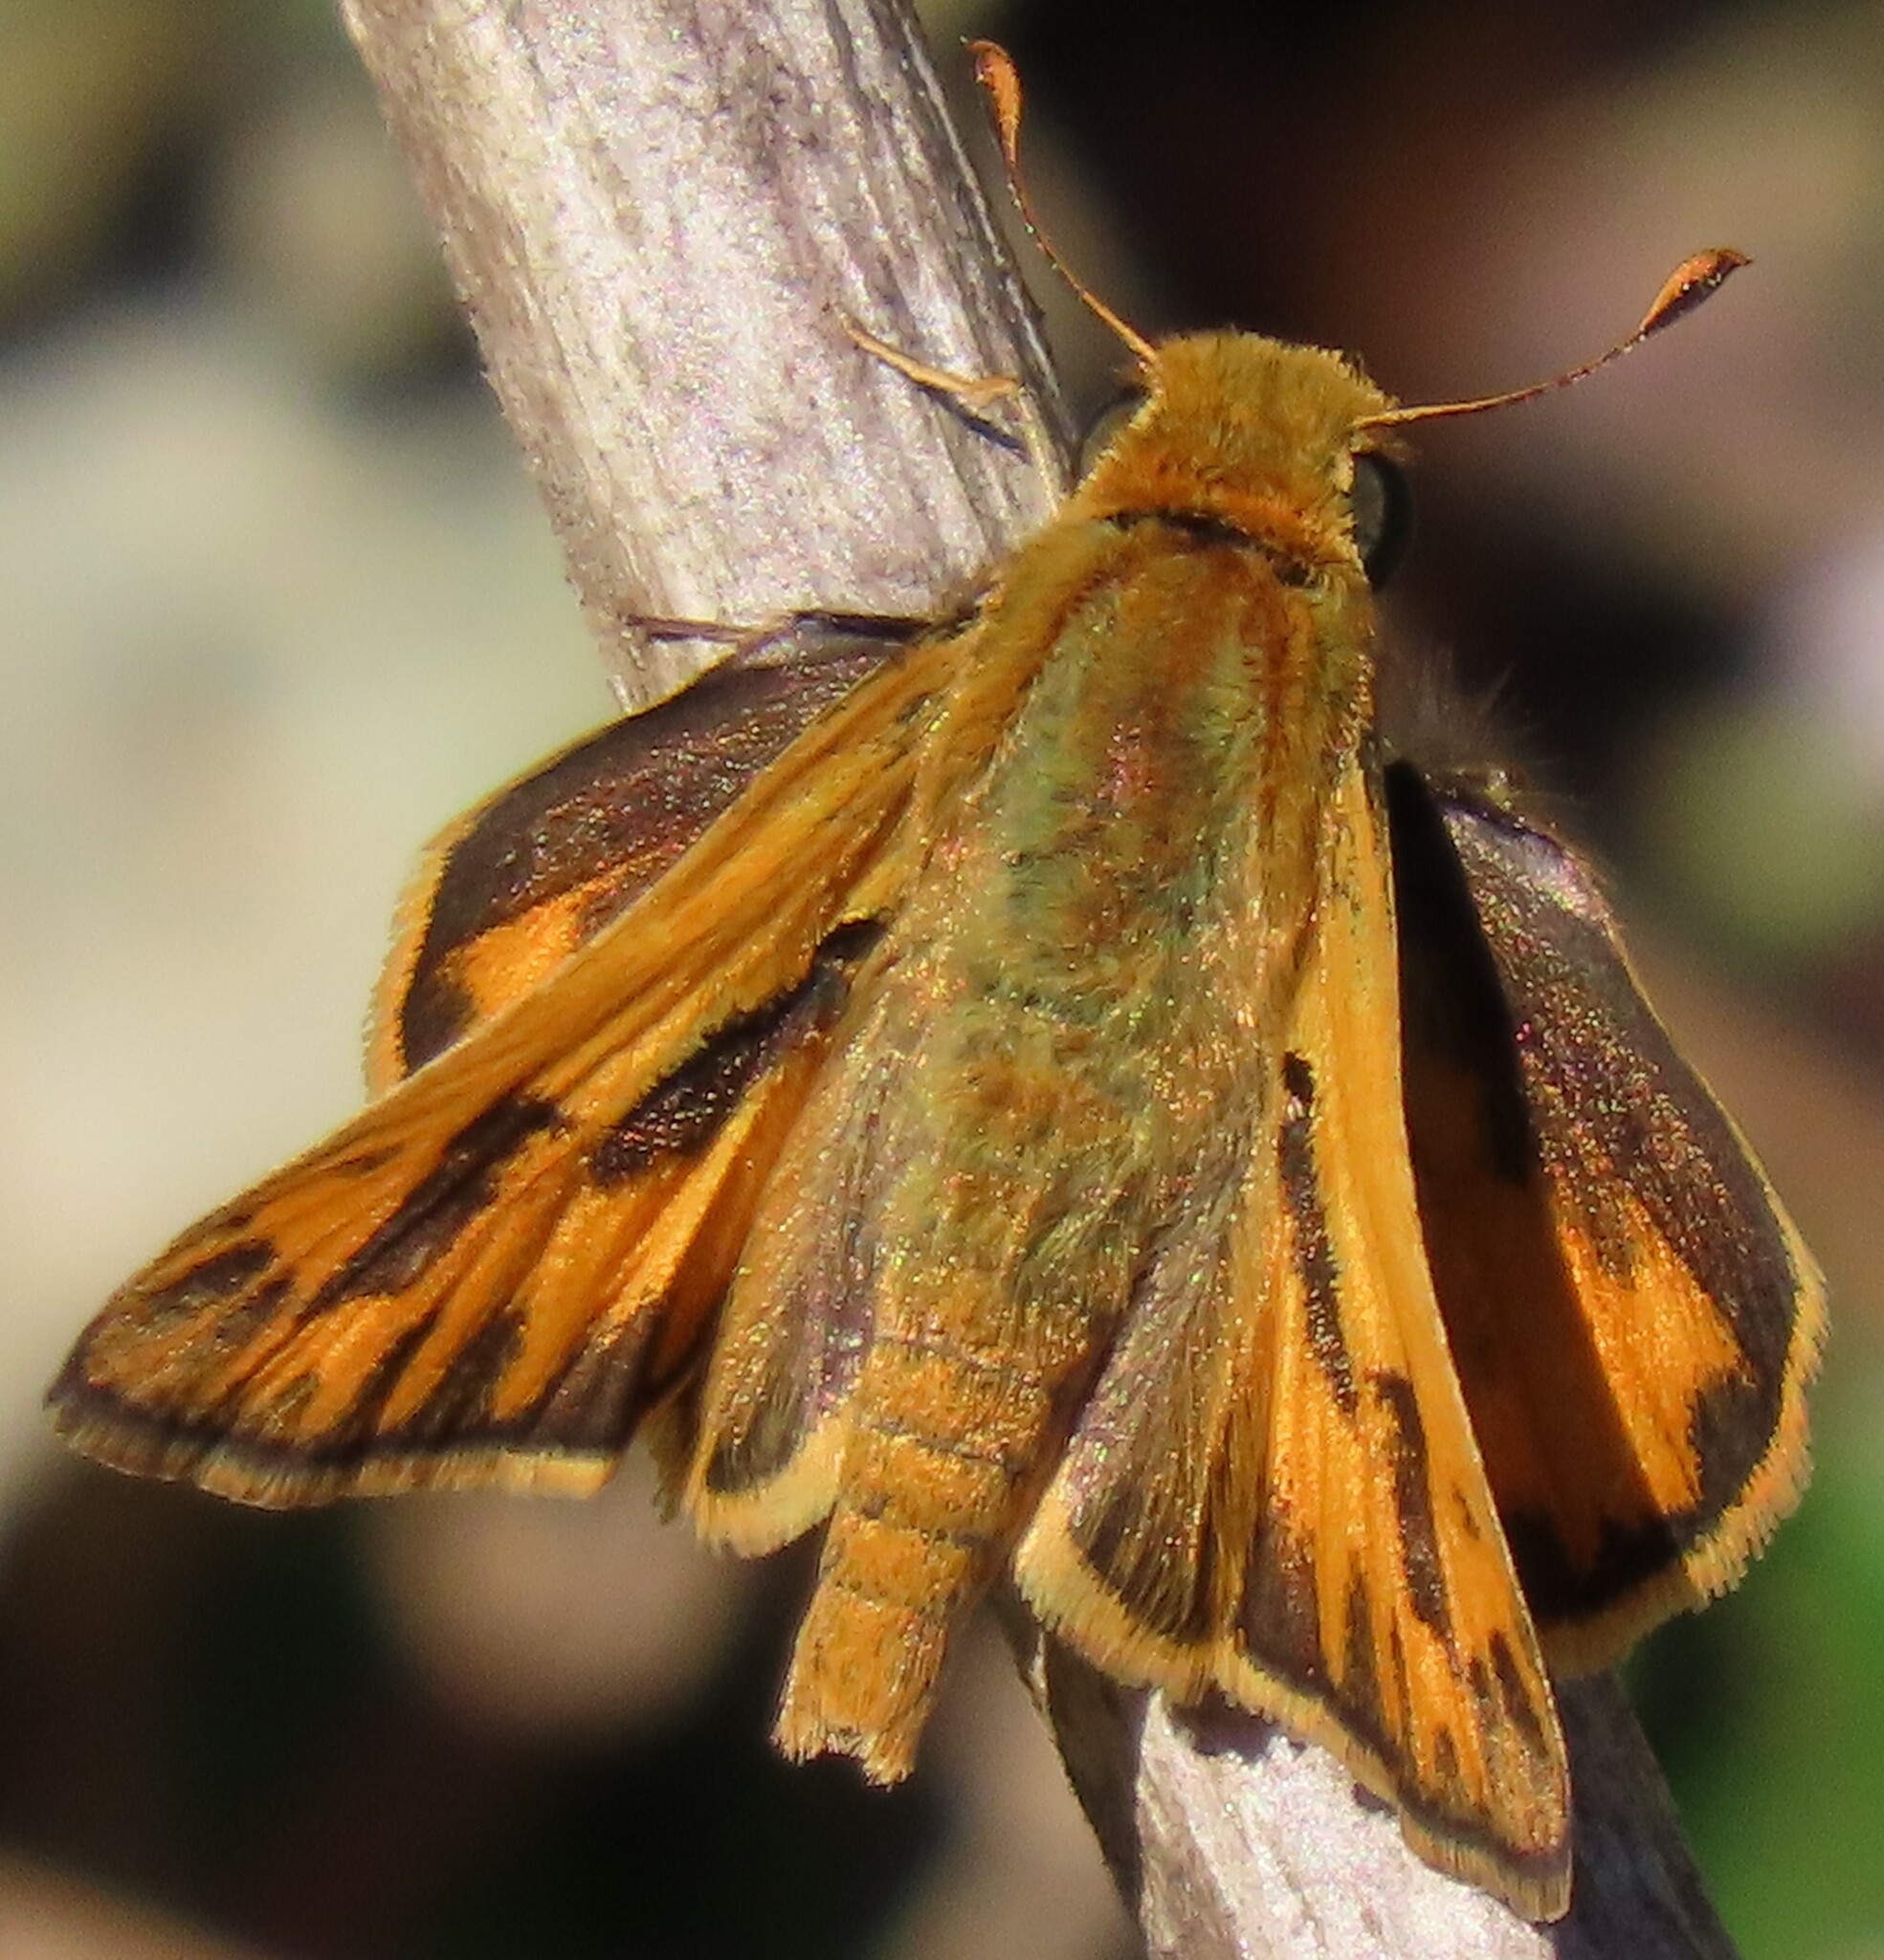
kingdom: Animalia
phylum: Arthropoda
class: Insecta
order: Lepidoptera
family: Hesperiidae
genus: Hylephila
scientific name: Hylephila phyleus
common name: Fiery skipper
